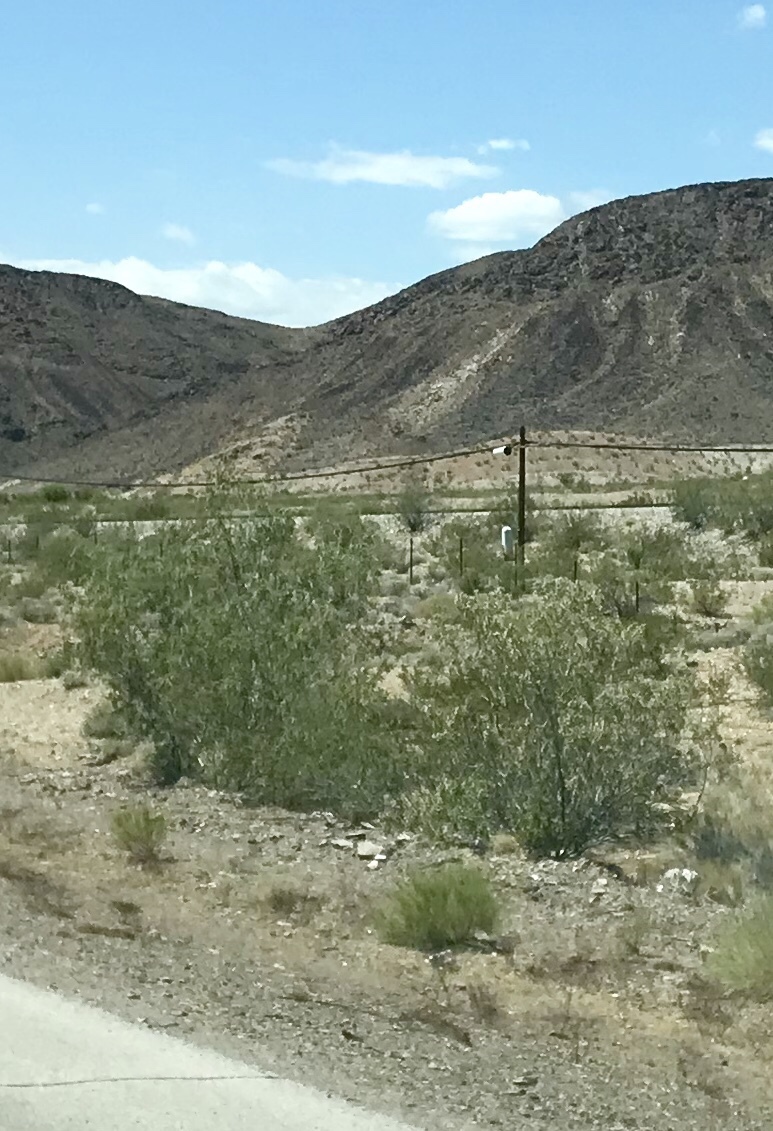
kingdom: Plantae
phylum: Tracheophyta
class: Magnoliopsida
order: Zygophyllales
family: Zygophyllaceae
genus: Larrea
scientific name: Larrea tridentata
